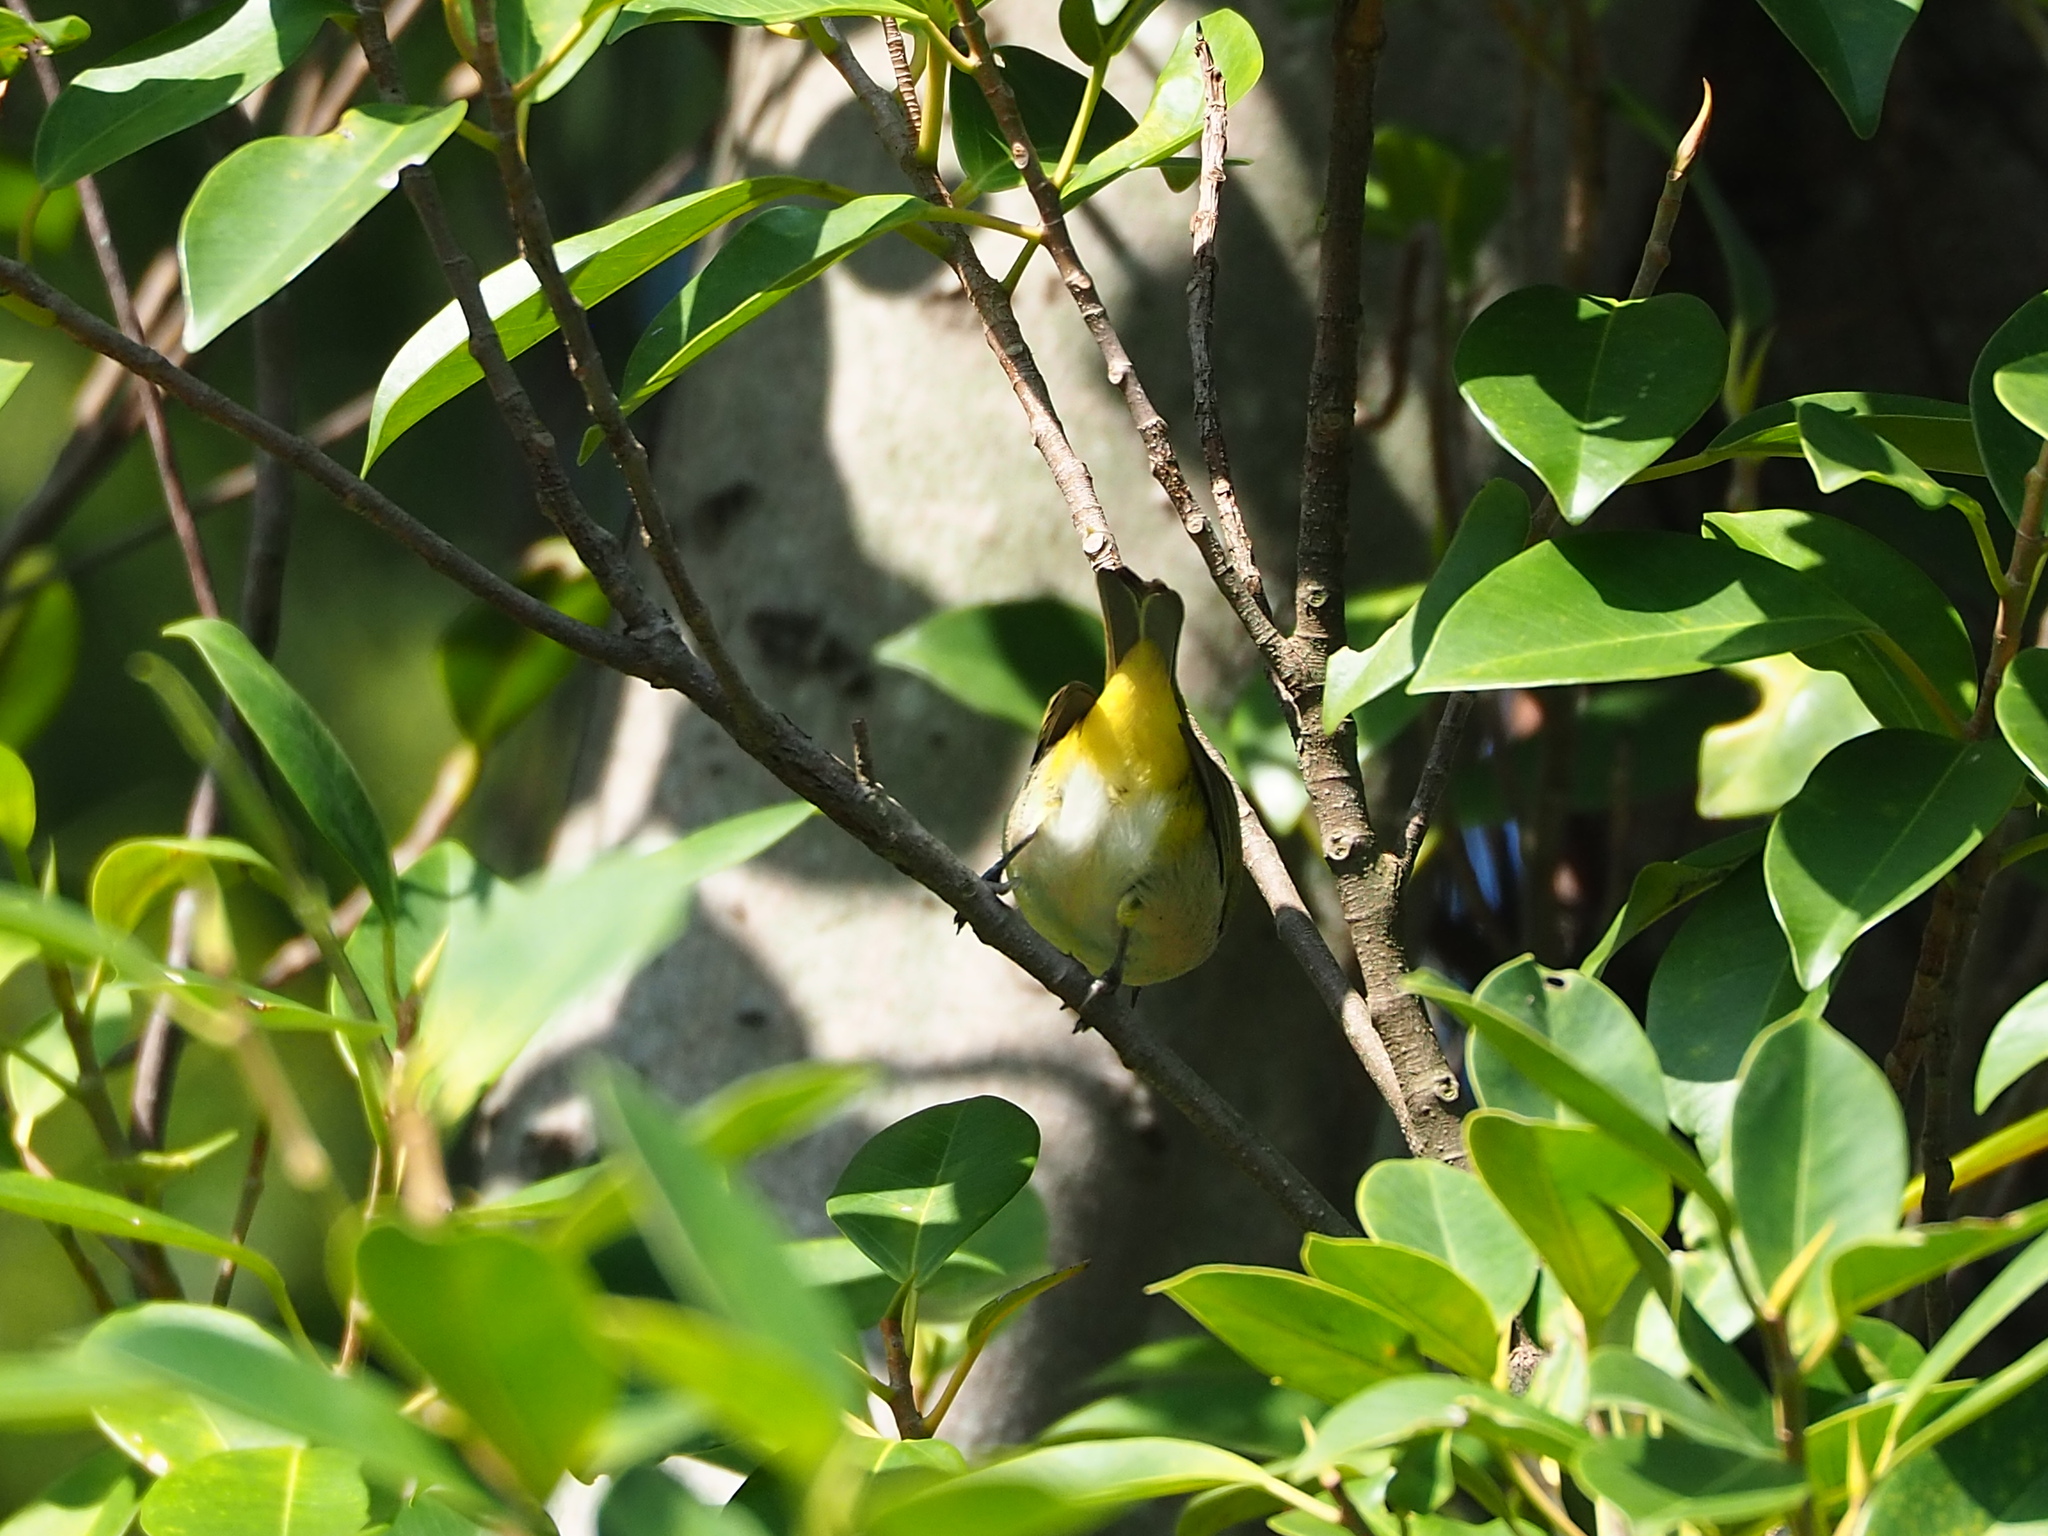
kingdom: Animalia
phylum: Chordata
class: Aves
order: Passeriformes
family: Zosteropidae
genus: Zosterops
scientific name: Zosterops simplex
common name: Swinhoe's white-eye
